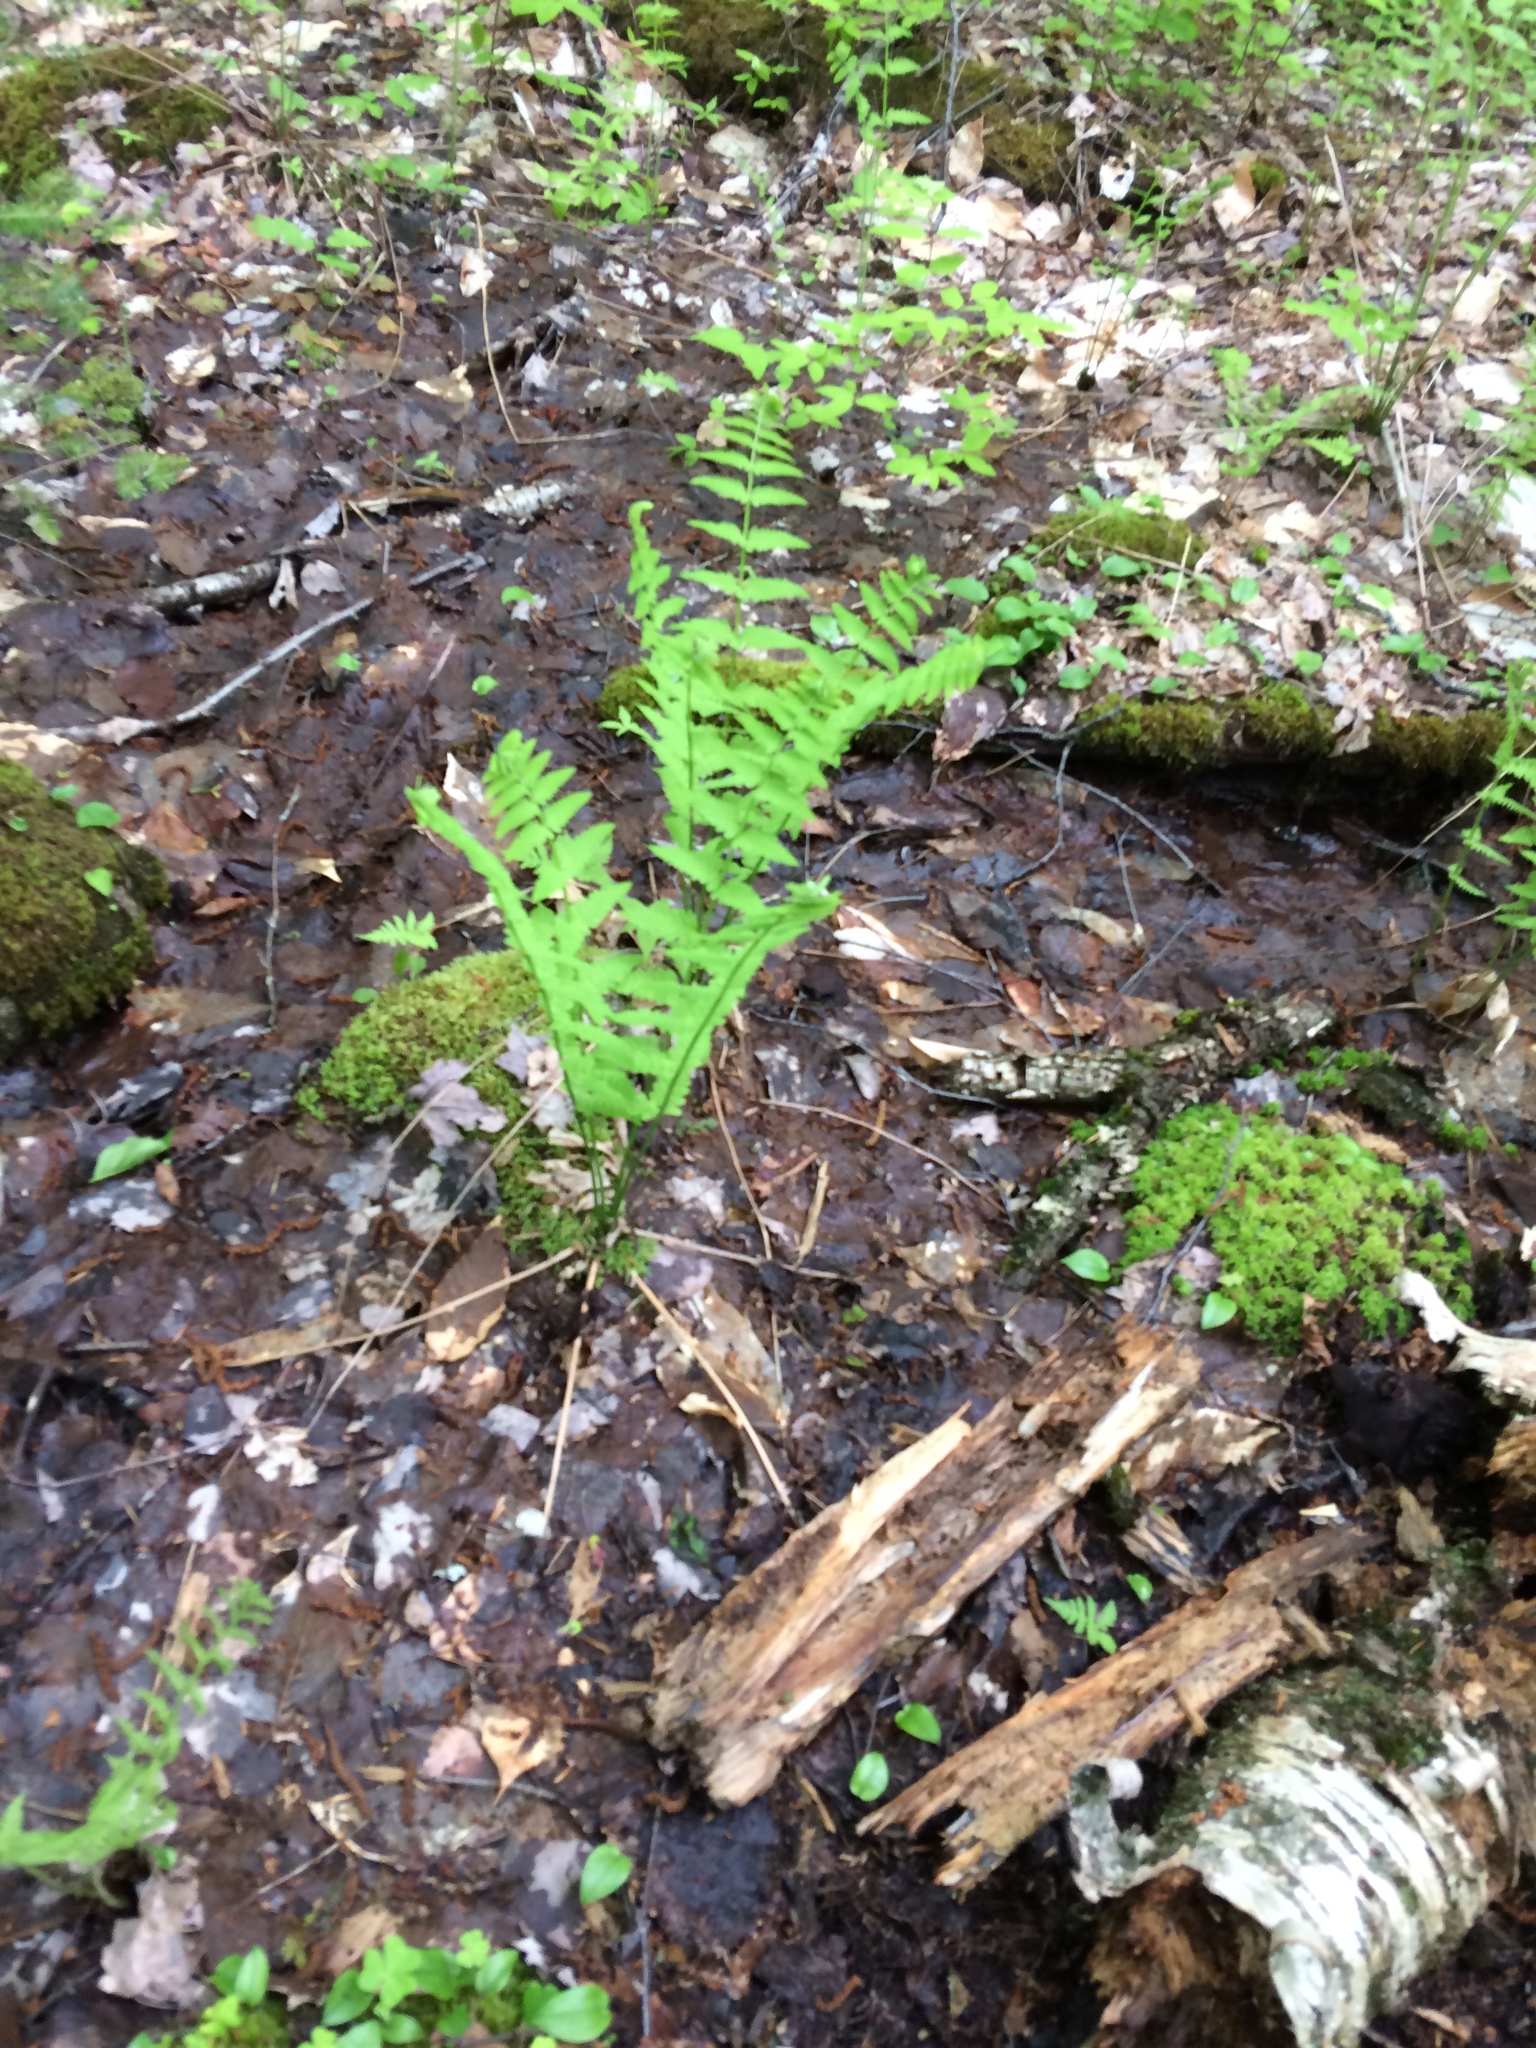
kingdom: Plantae
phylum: Tracheophyta
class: Polypodiopsida
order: Osmundales
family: Osmundaceae
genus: Claytosmunda
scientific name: Claytosmunda claytoniana
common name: Clayton's fern
